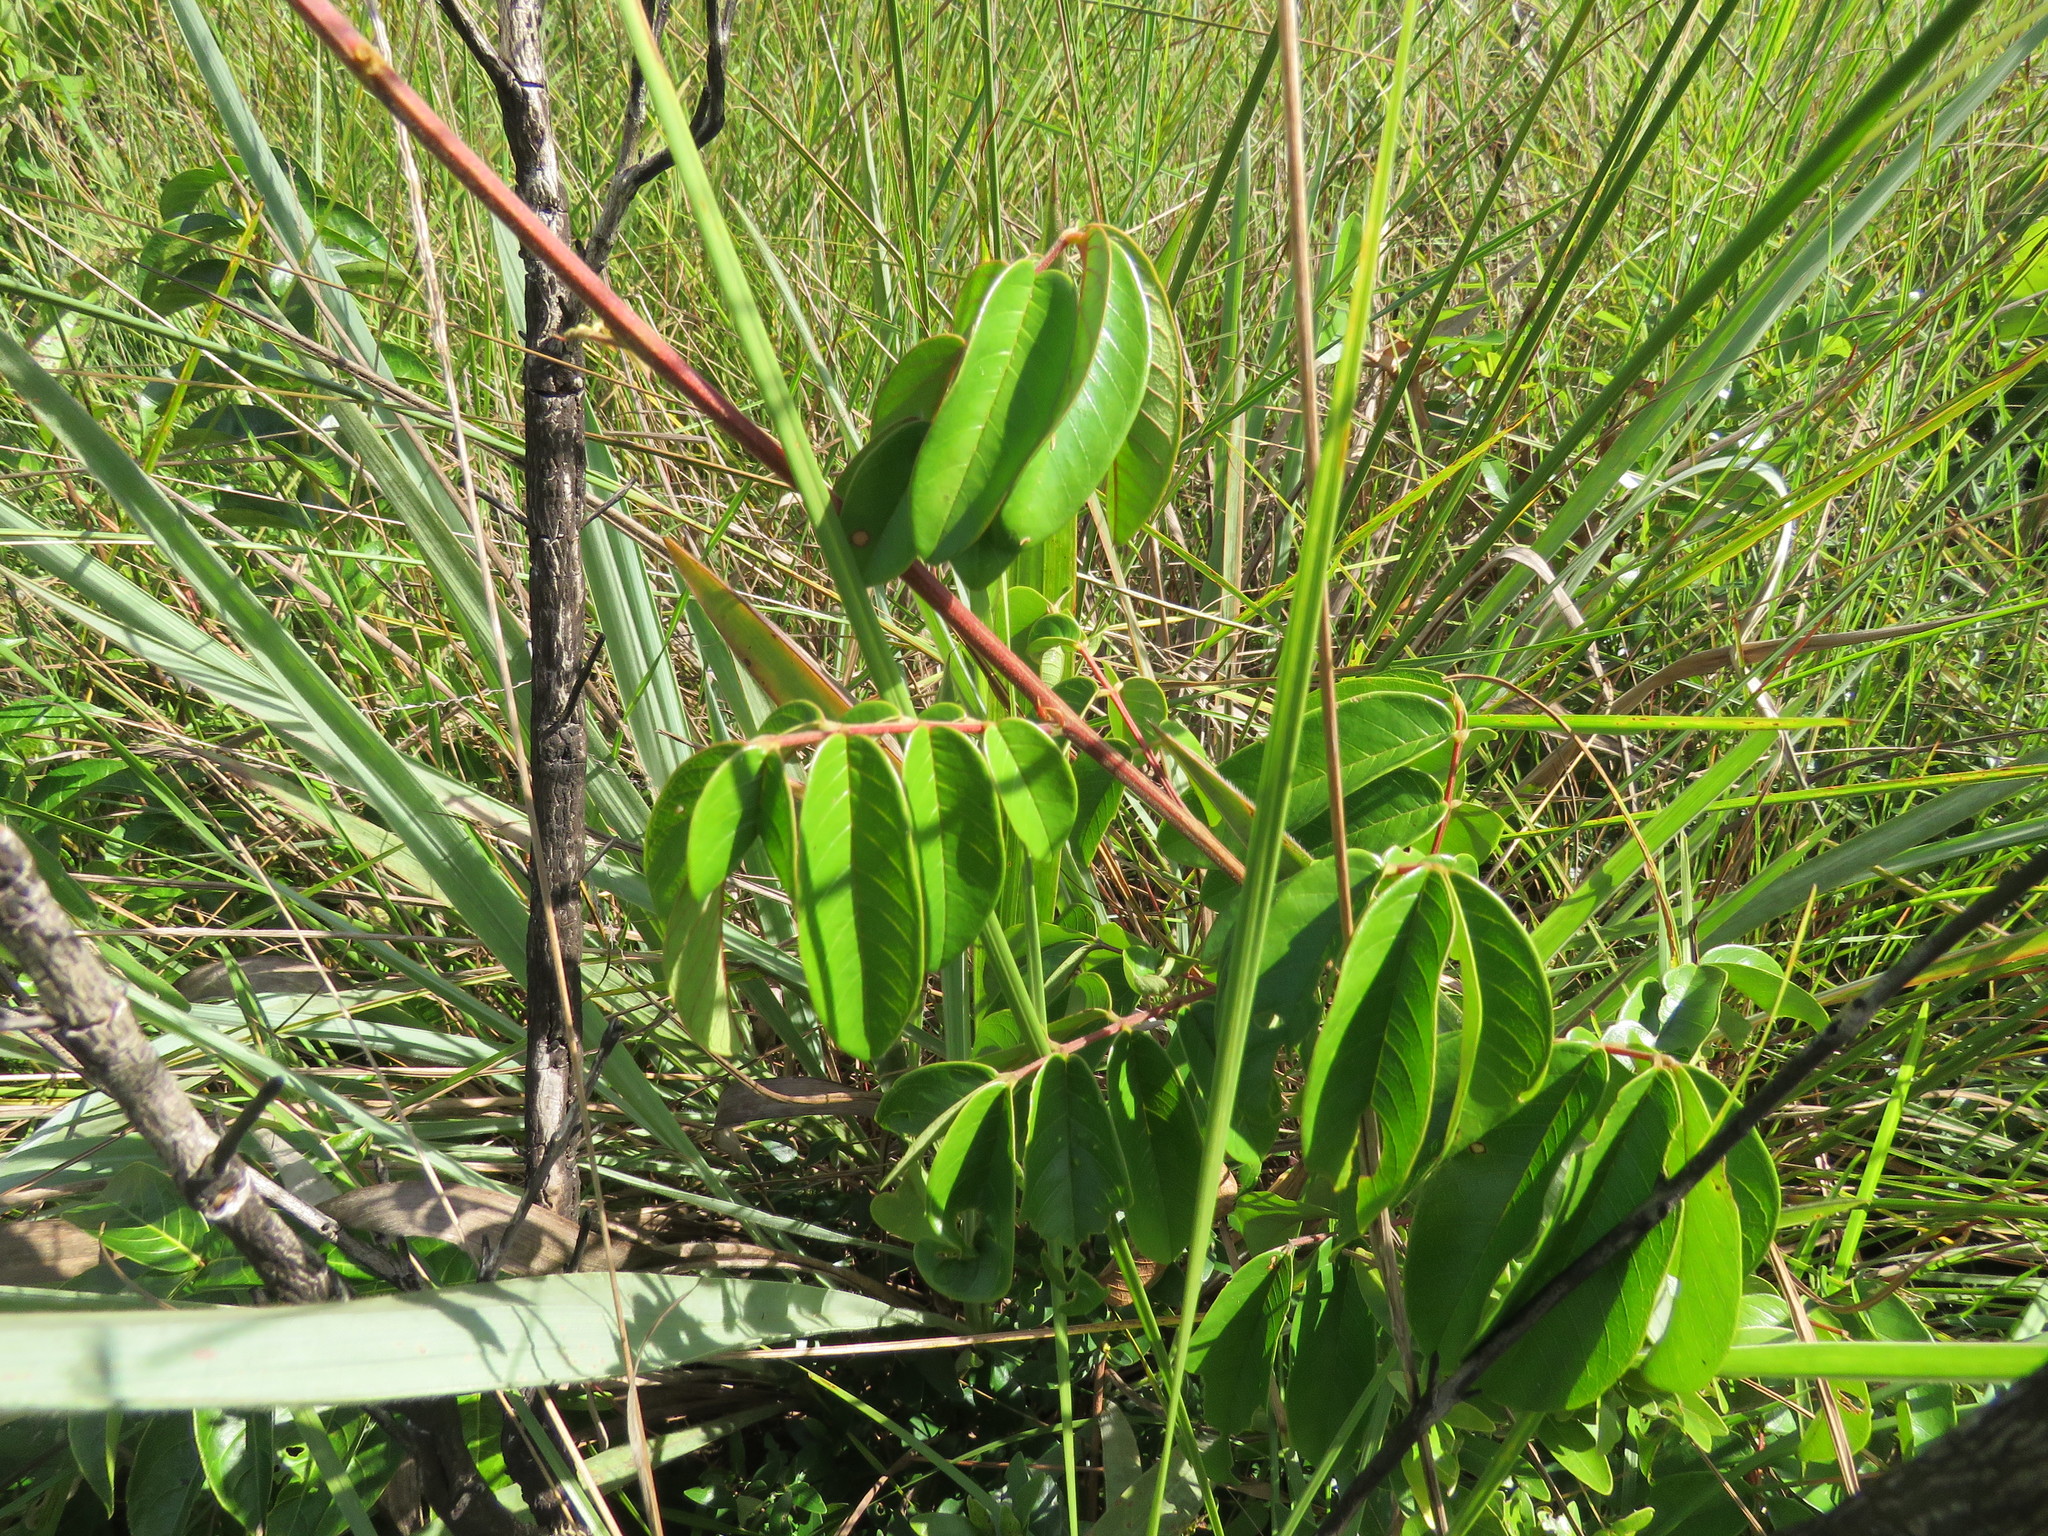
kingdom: Plantae
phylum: Tracheophyta
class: Magnoliopsida
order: Fabales
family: Fabaceae
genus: Senna
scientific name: Senna weddelliana
